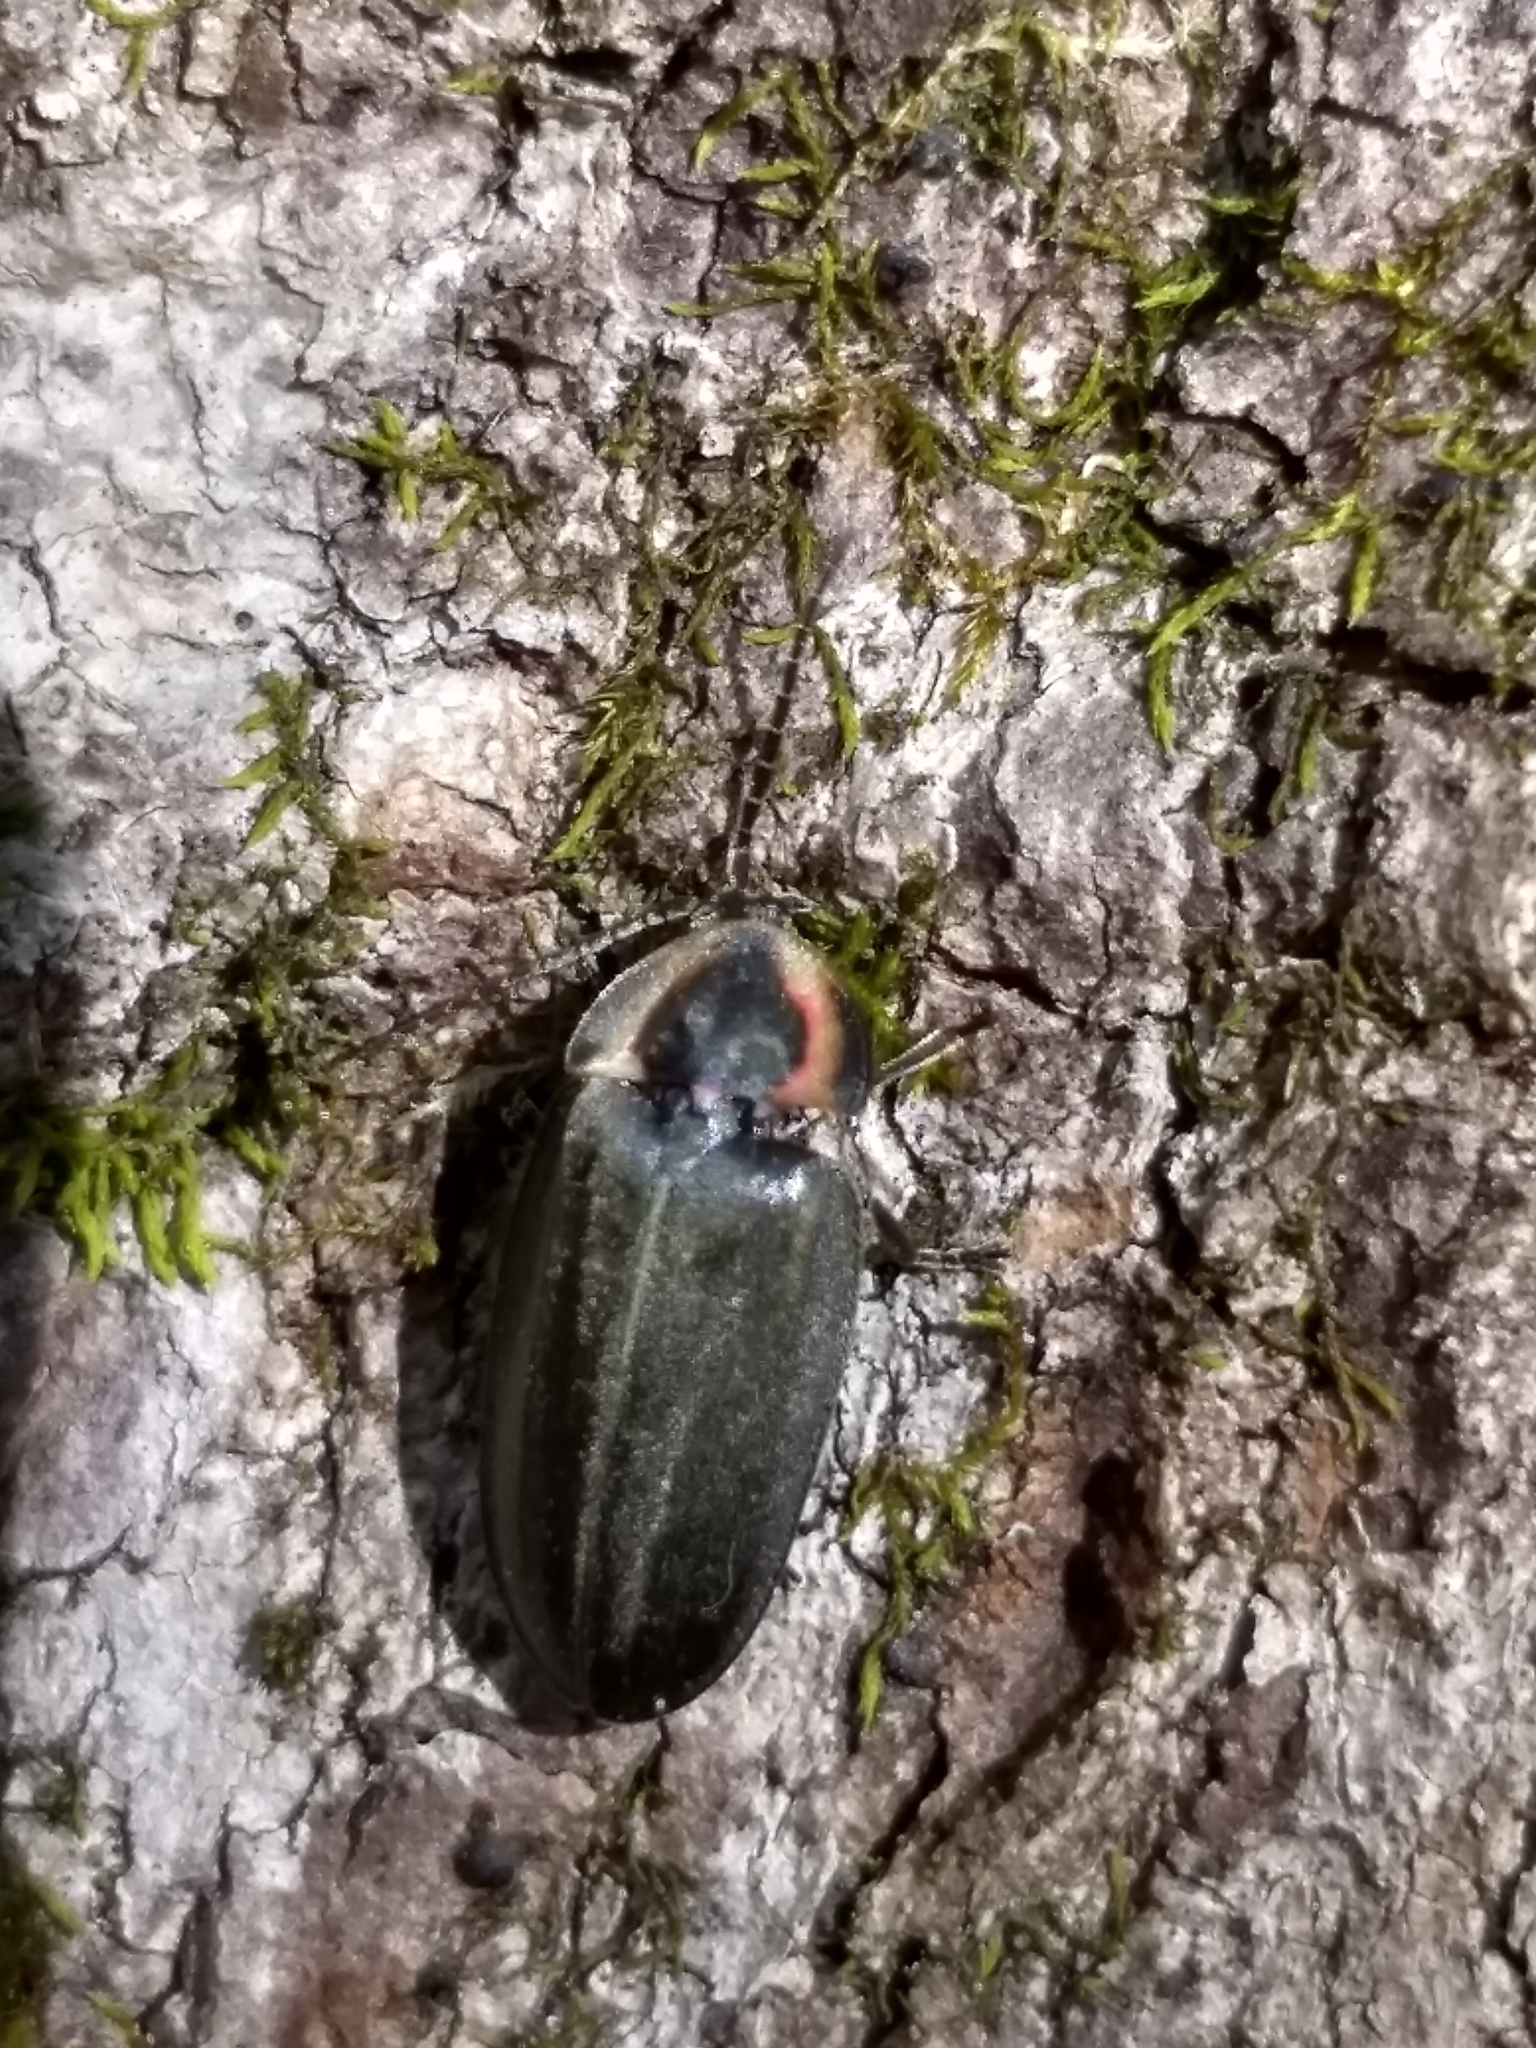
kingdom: Animalia
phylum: Arthropoda
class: Insecta
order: Coleoptera
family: Lampyridae
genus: Photinus
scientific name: Photinus corrusca
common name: Winter firefly
